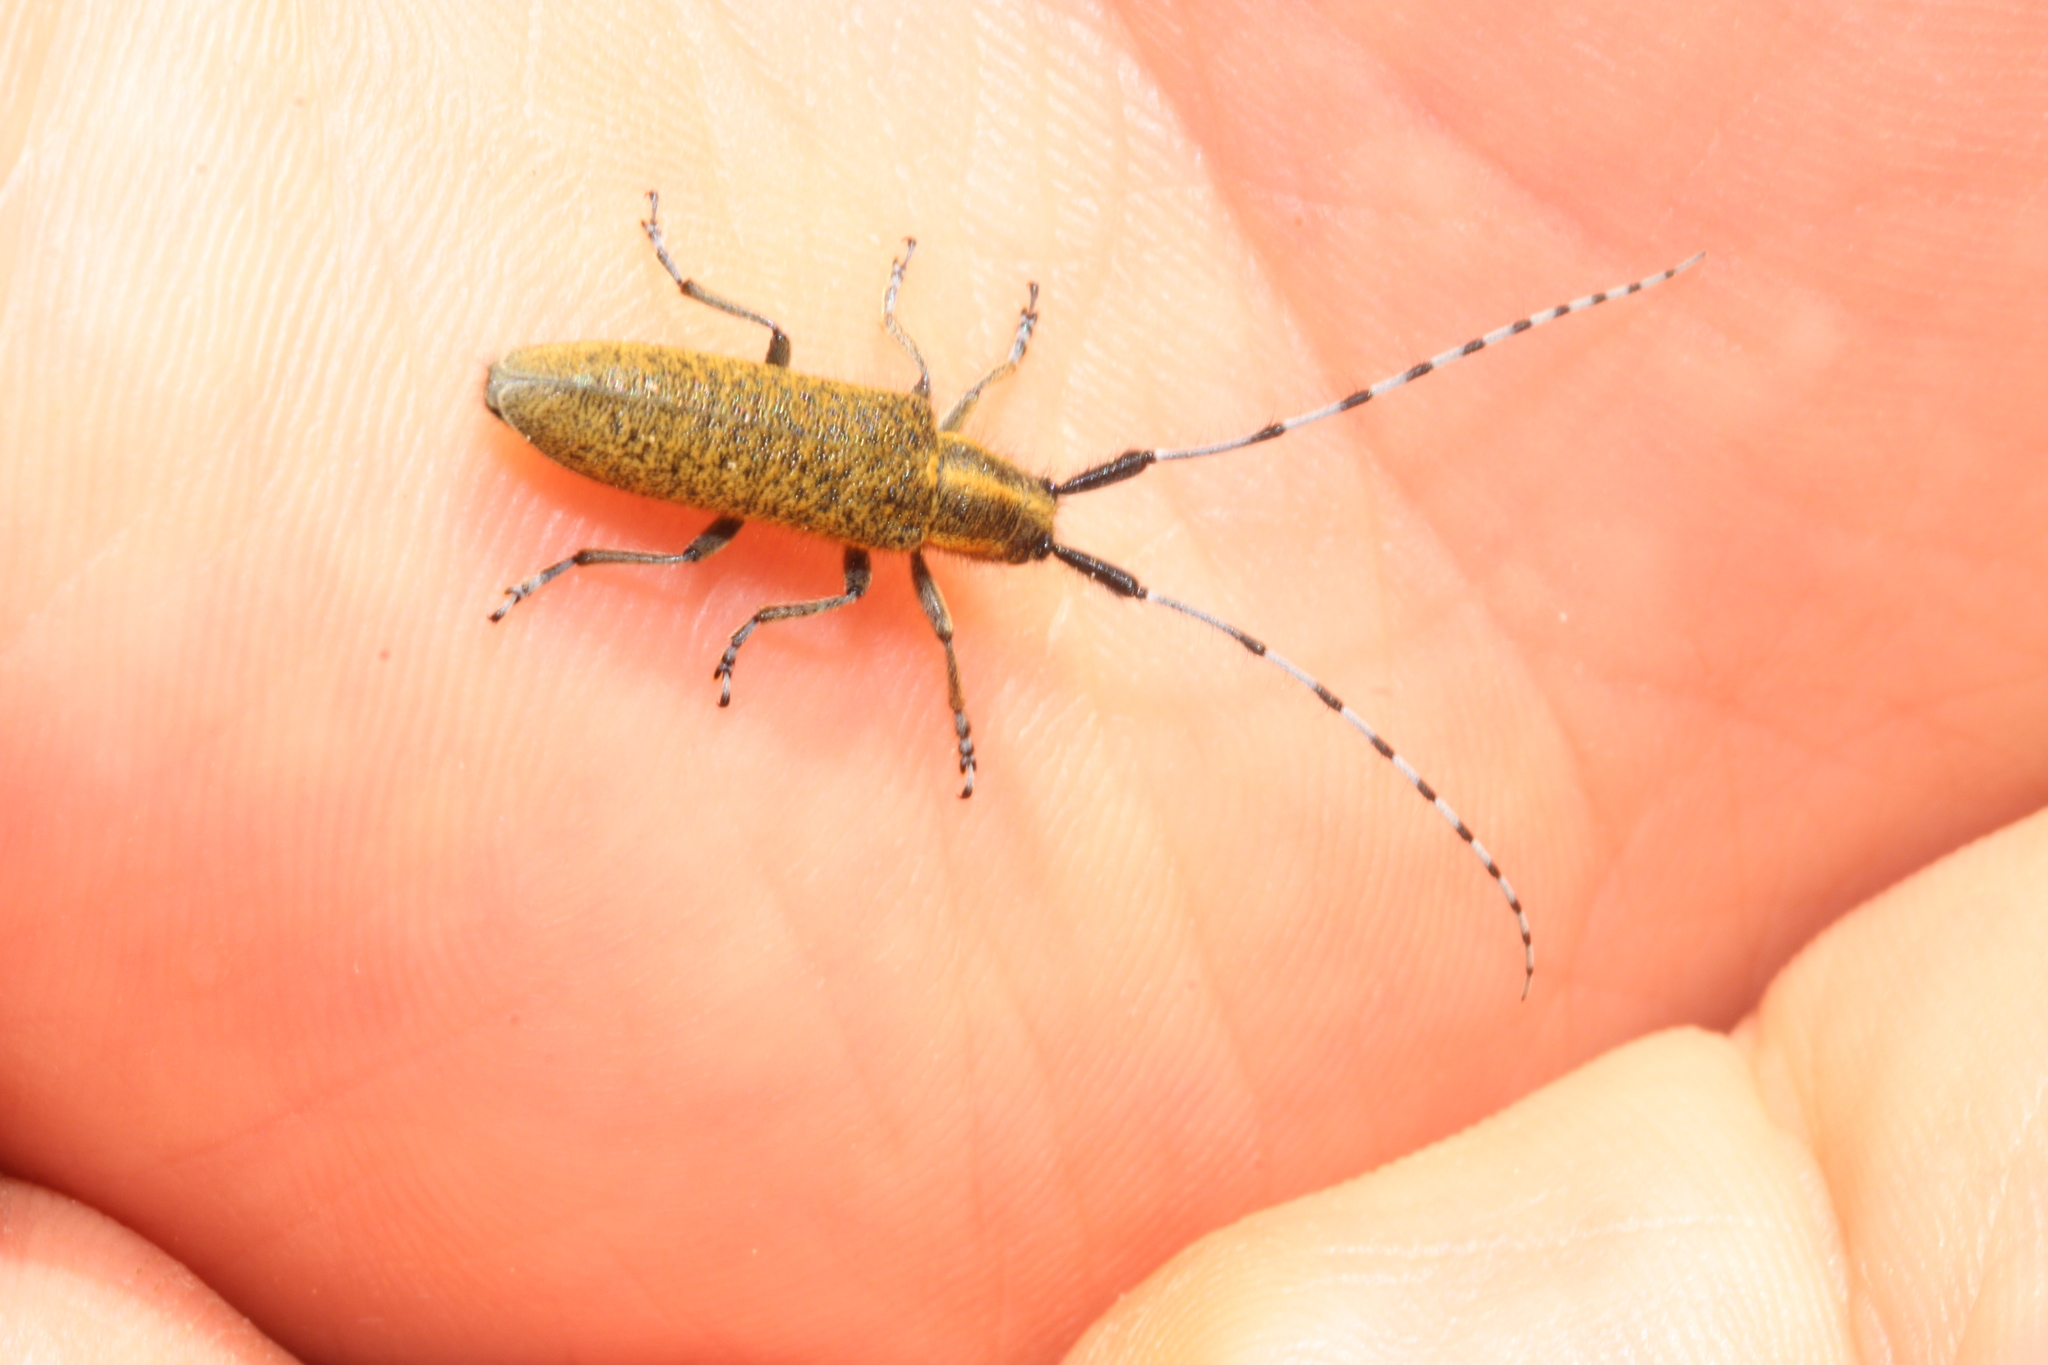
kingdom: Animalia
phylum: Arthropoda
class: Insecta
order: Coleoptera
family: Cerambycidae
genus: Agapanthia
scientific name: Agapanthia villosoviridescens
